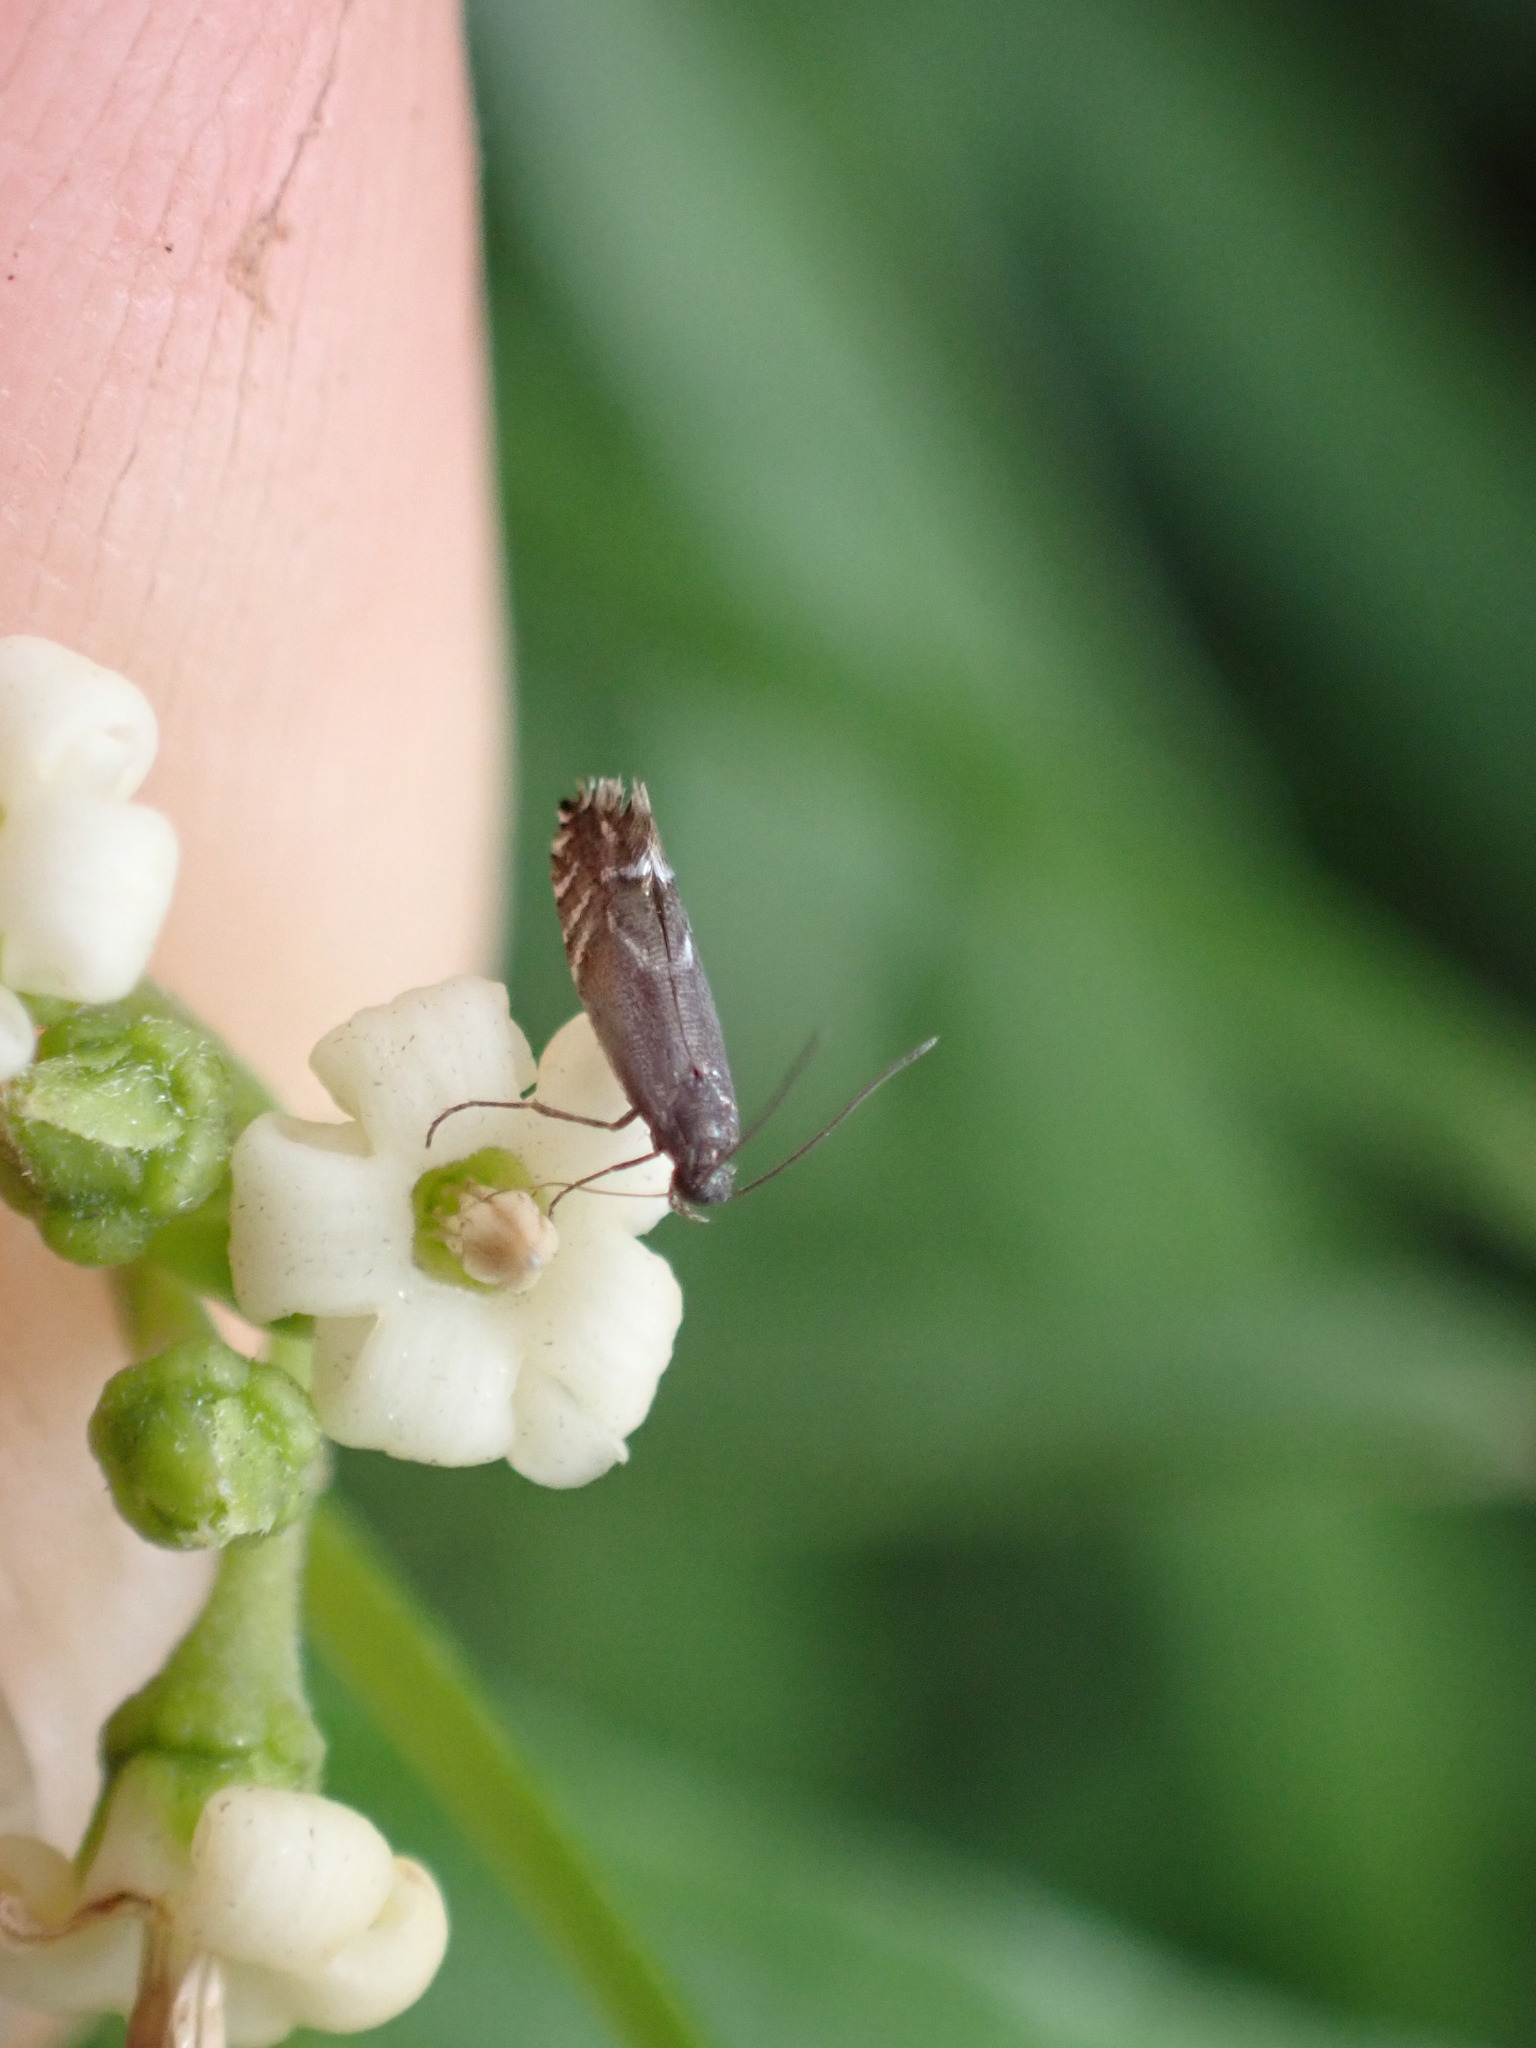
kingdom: Animalia
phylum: Arthropoda
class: Insecta
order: Lepidoptera
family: Glyphipterigidae
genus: Glyphipterix
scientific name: Glyphipterix simpliciella
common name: Cocksfoot moth
